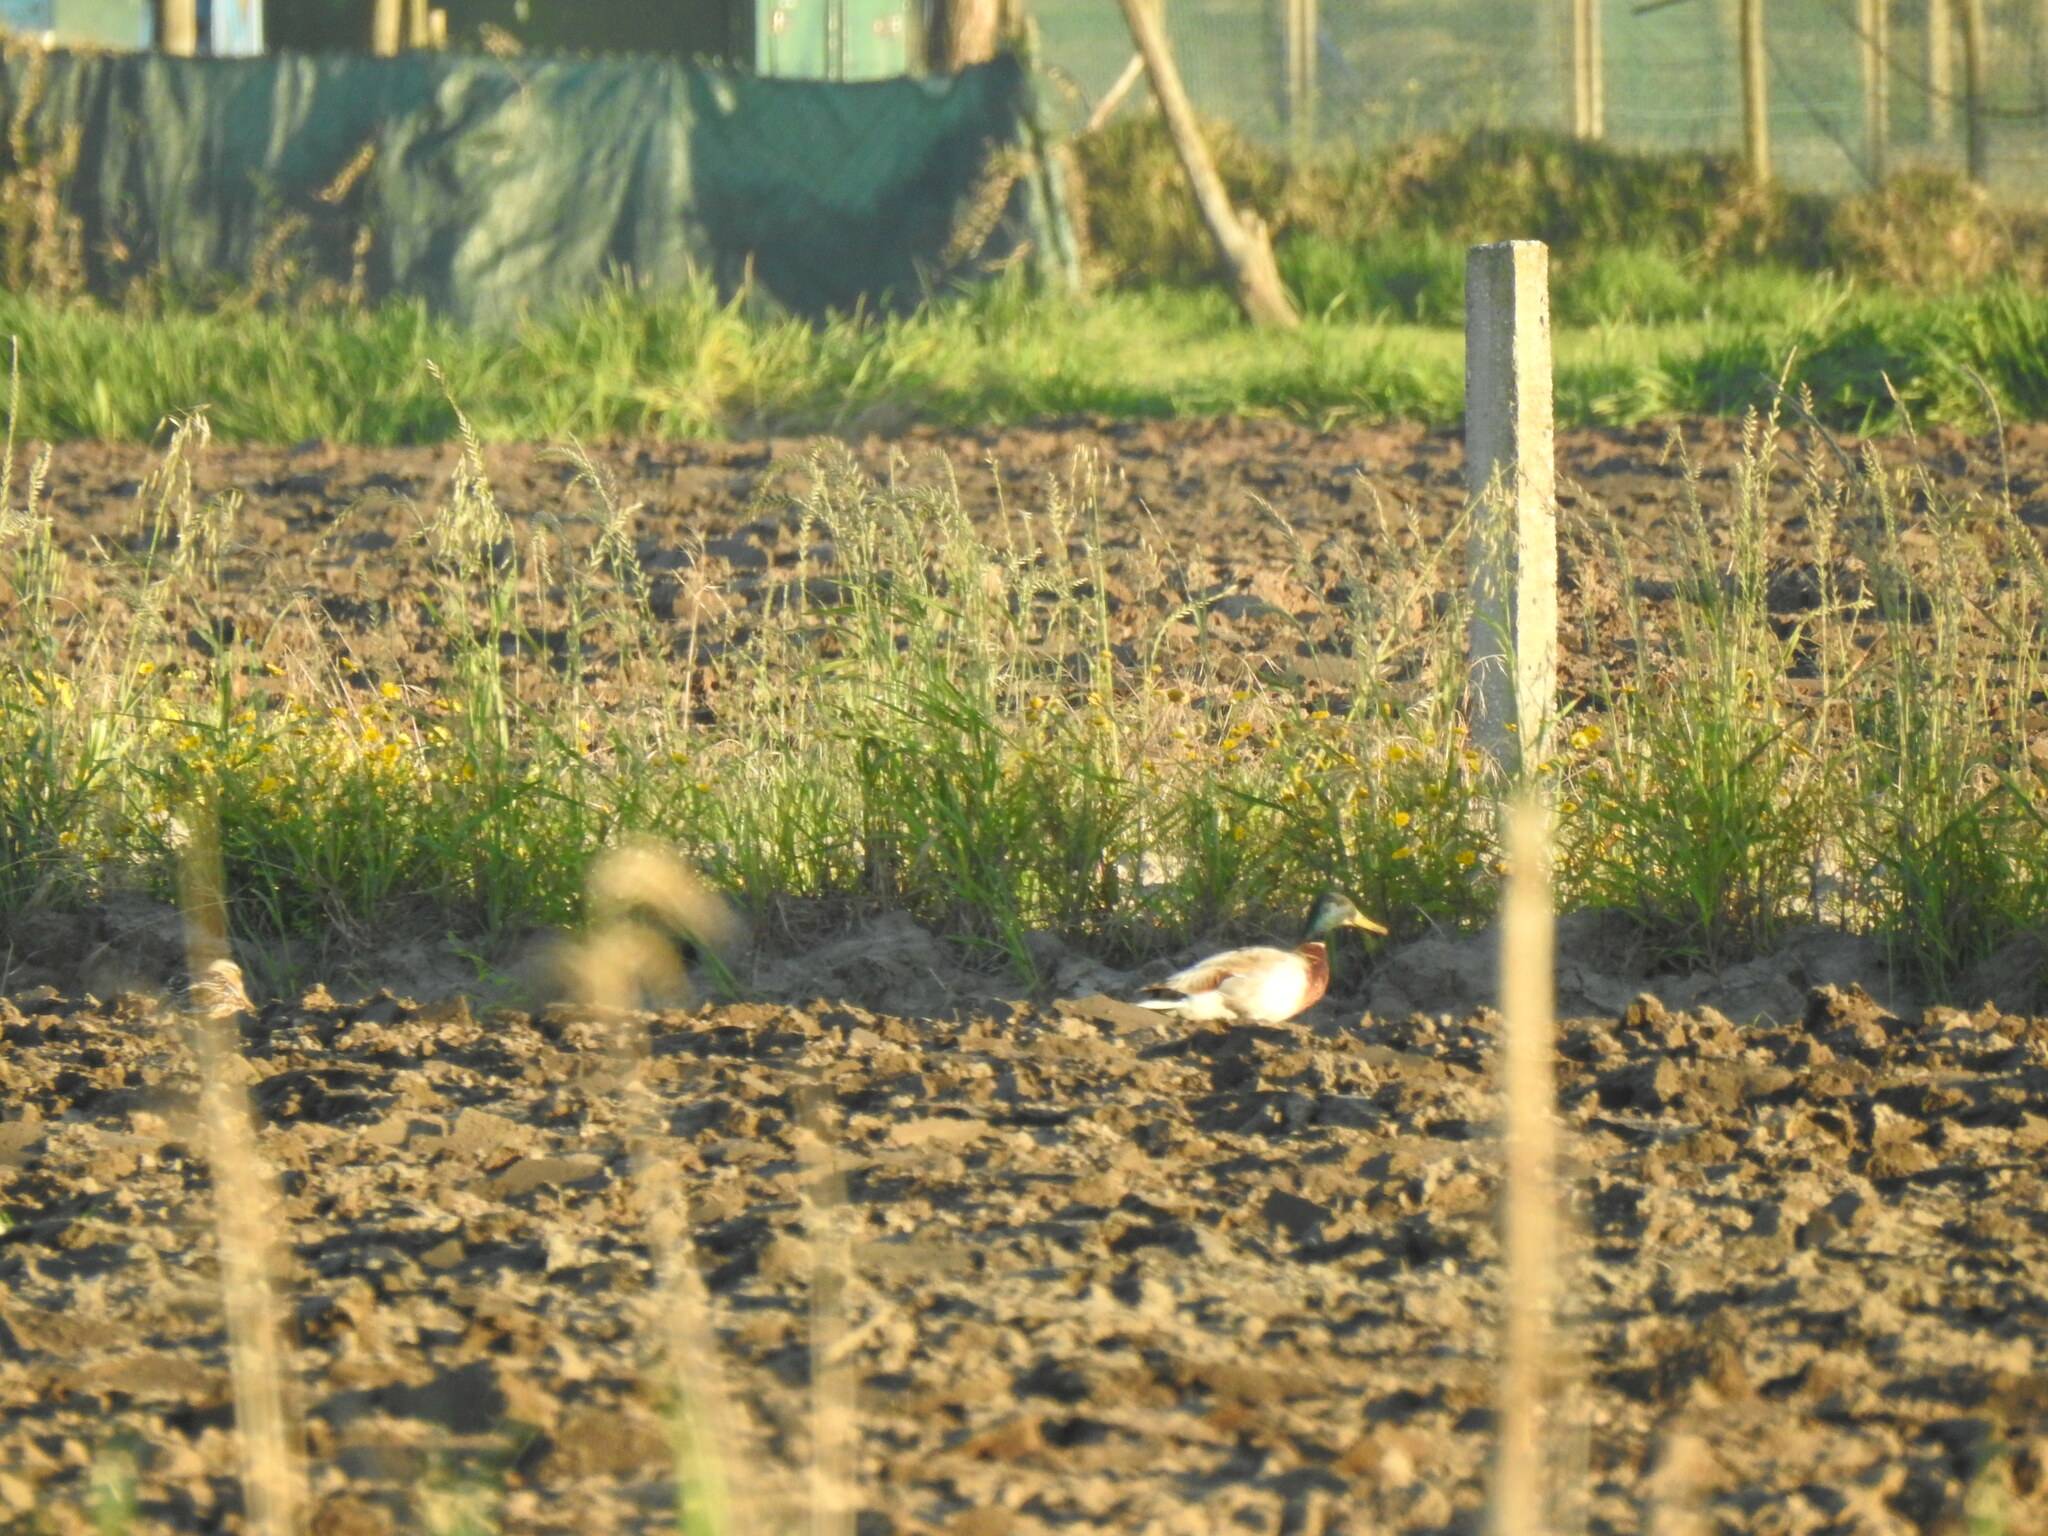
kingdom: Animalia
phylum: Chordata
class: Aves
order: Anseriformes
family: Anatidae
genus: Anas
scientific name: Anas platyrhynchos
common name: Mallard
